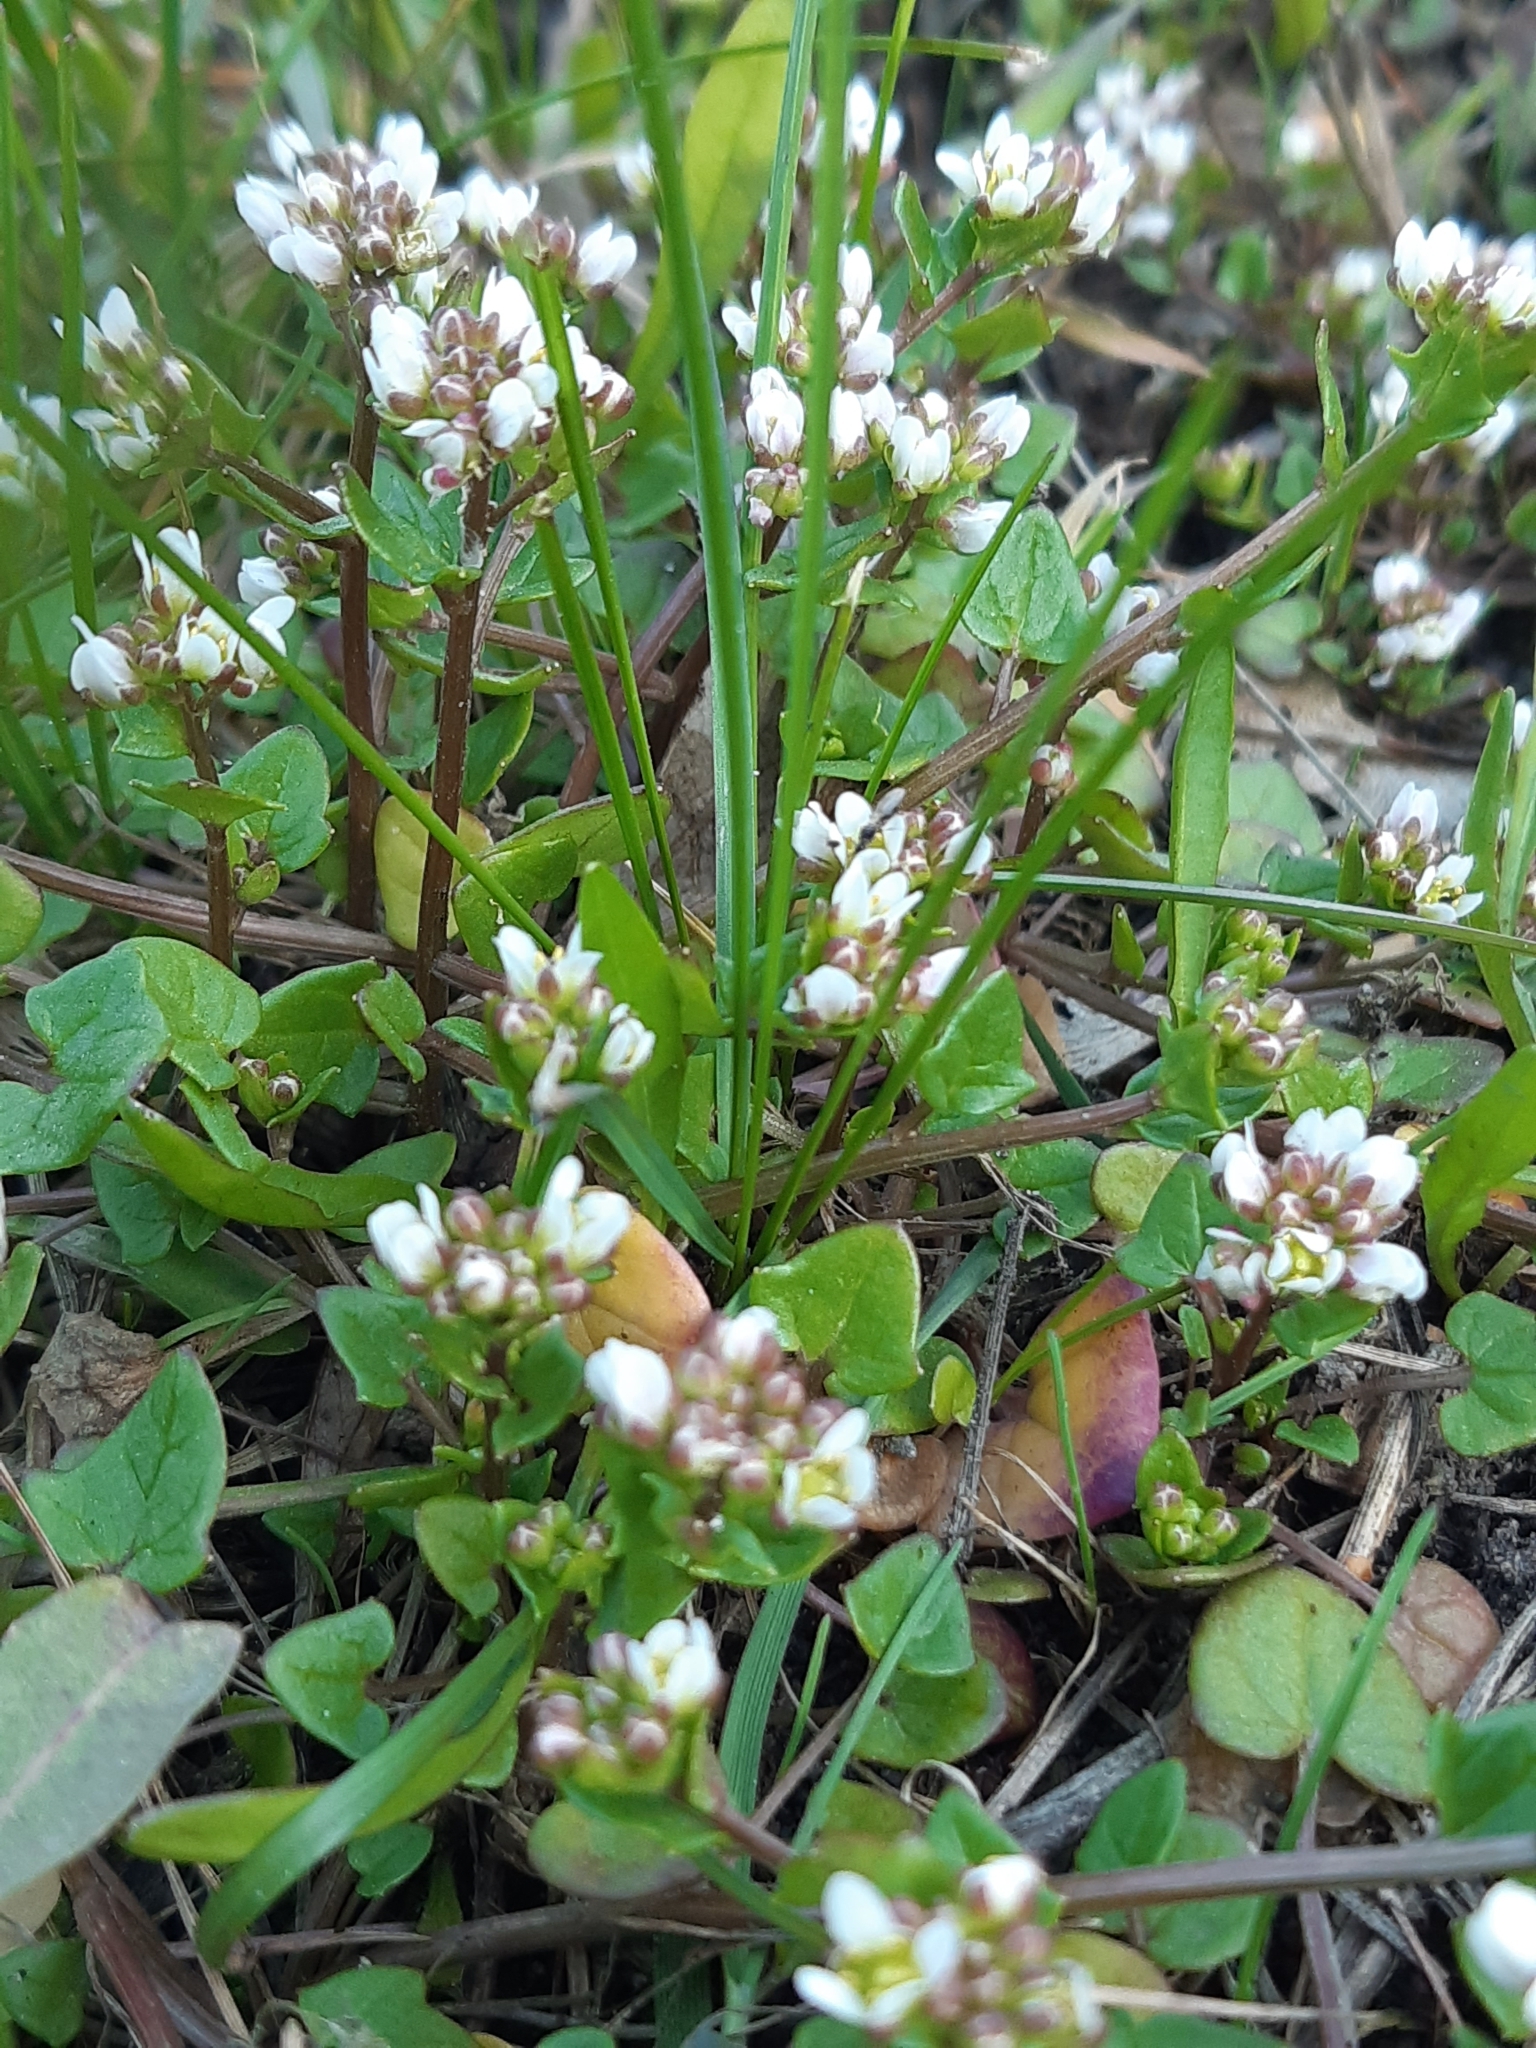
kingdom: Plantae
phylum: Tracheophyta
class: Magnoliopsida
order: Brassicales
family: Brassicaceae
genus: Cochlearia
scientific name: Cochlearia danica
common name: Early scurvygrass
